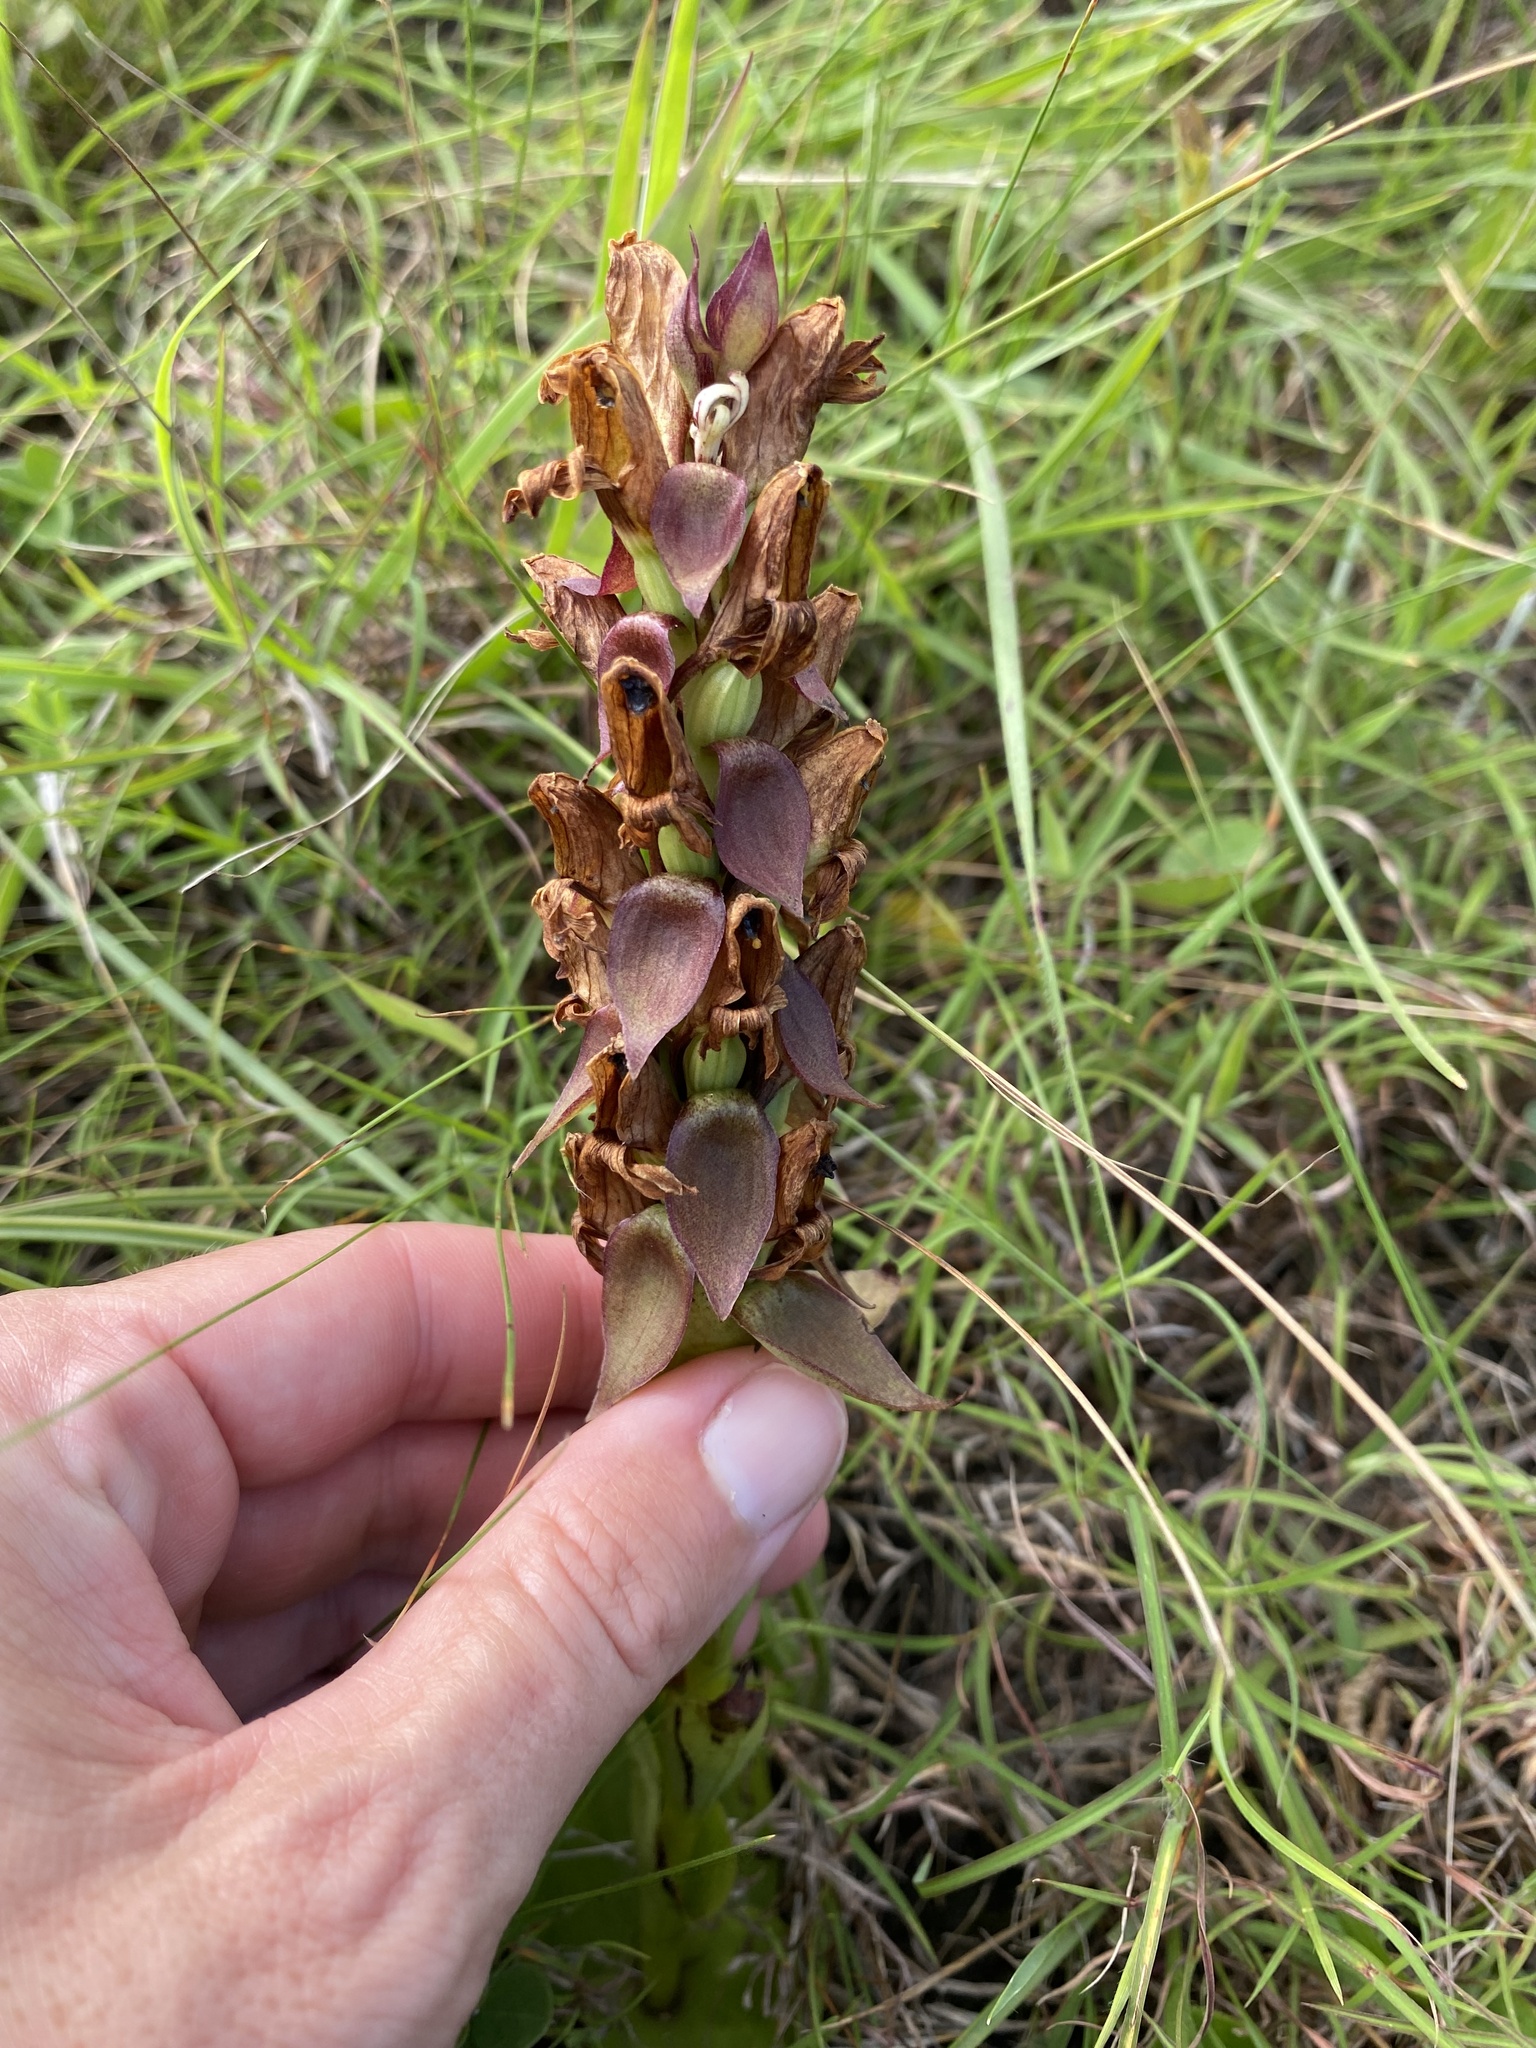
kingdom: Plantae
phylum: Tracheophyta
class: Liliopsida
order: Asparagales
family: Orchidaceae
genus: Satyrium
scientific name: Satyrium sphaerocarpum
